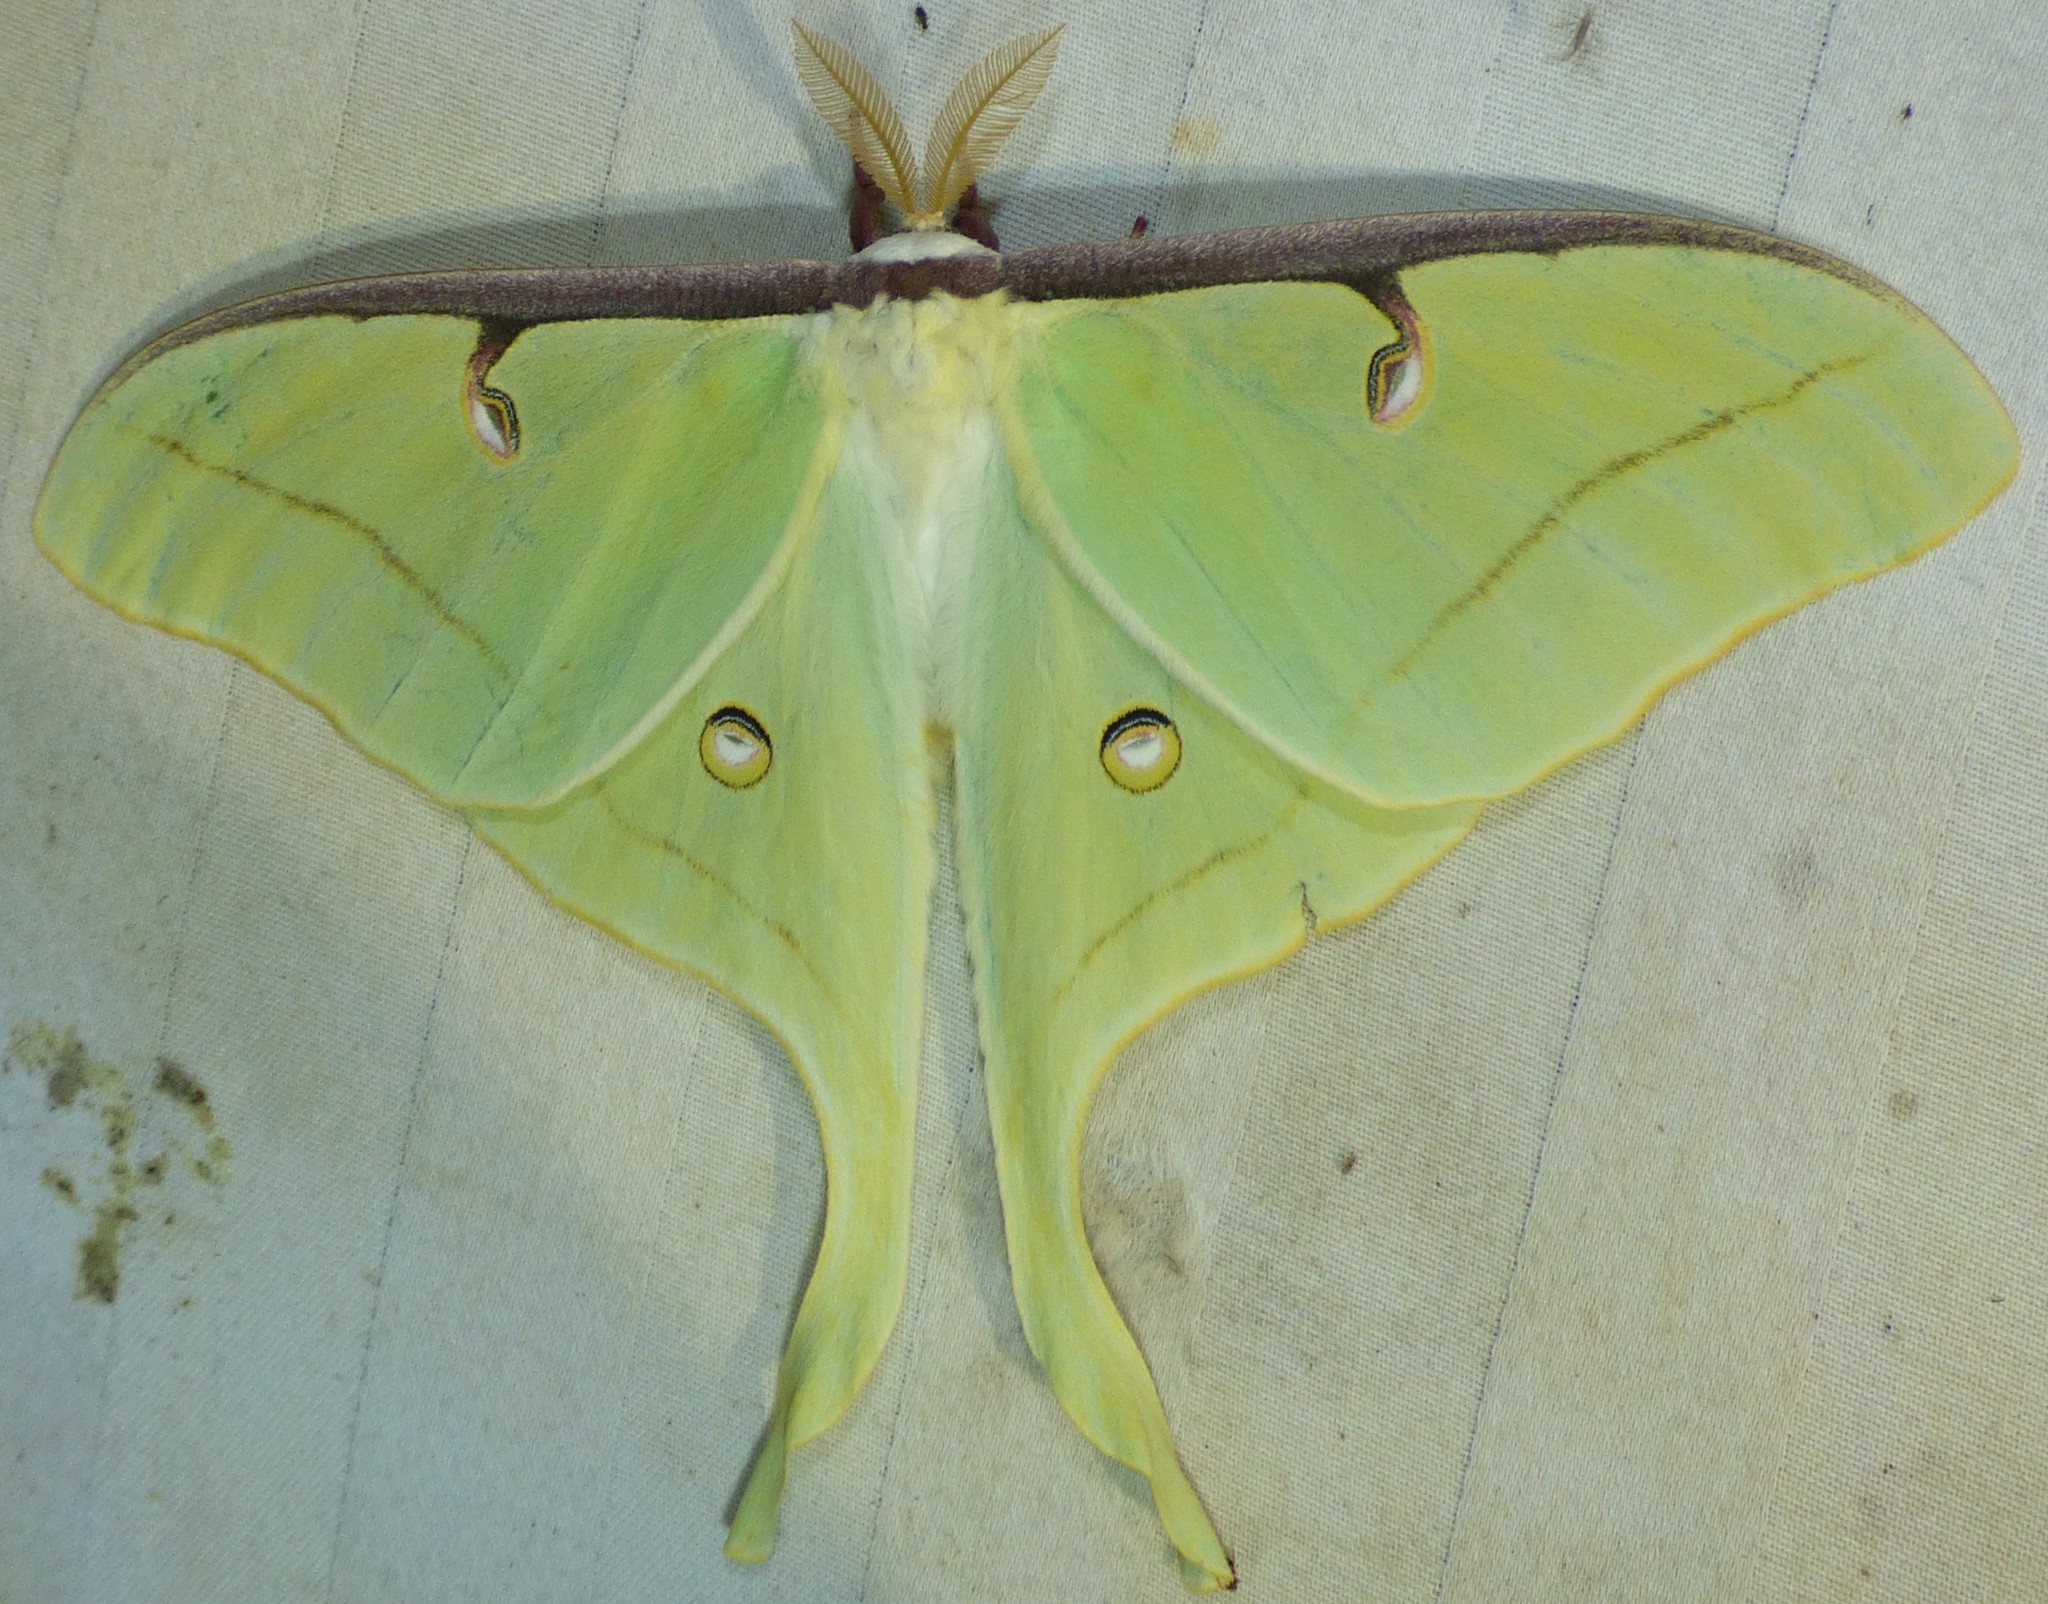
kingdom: Animalia
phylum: Arthropoda
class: Insecta
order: Lepidoptera
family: Saturniidae
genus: Actias
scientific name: Actias luna
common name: Luna moth
